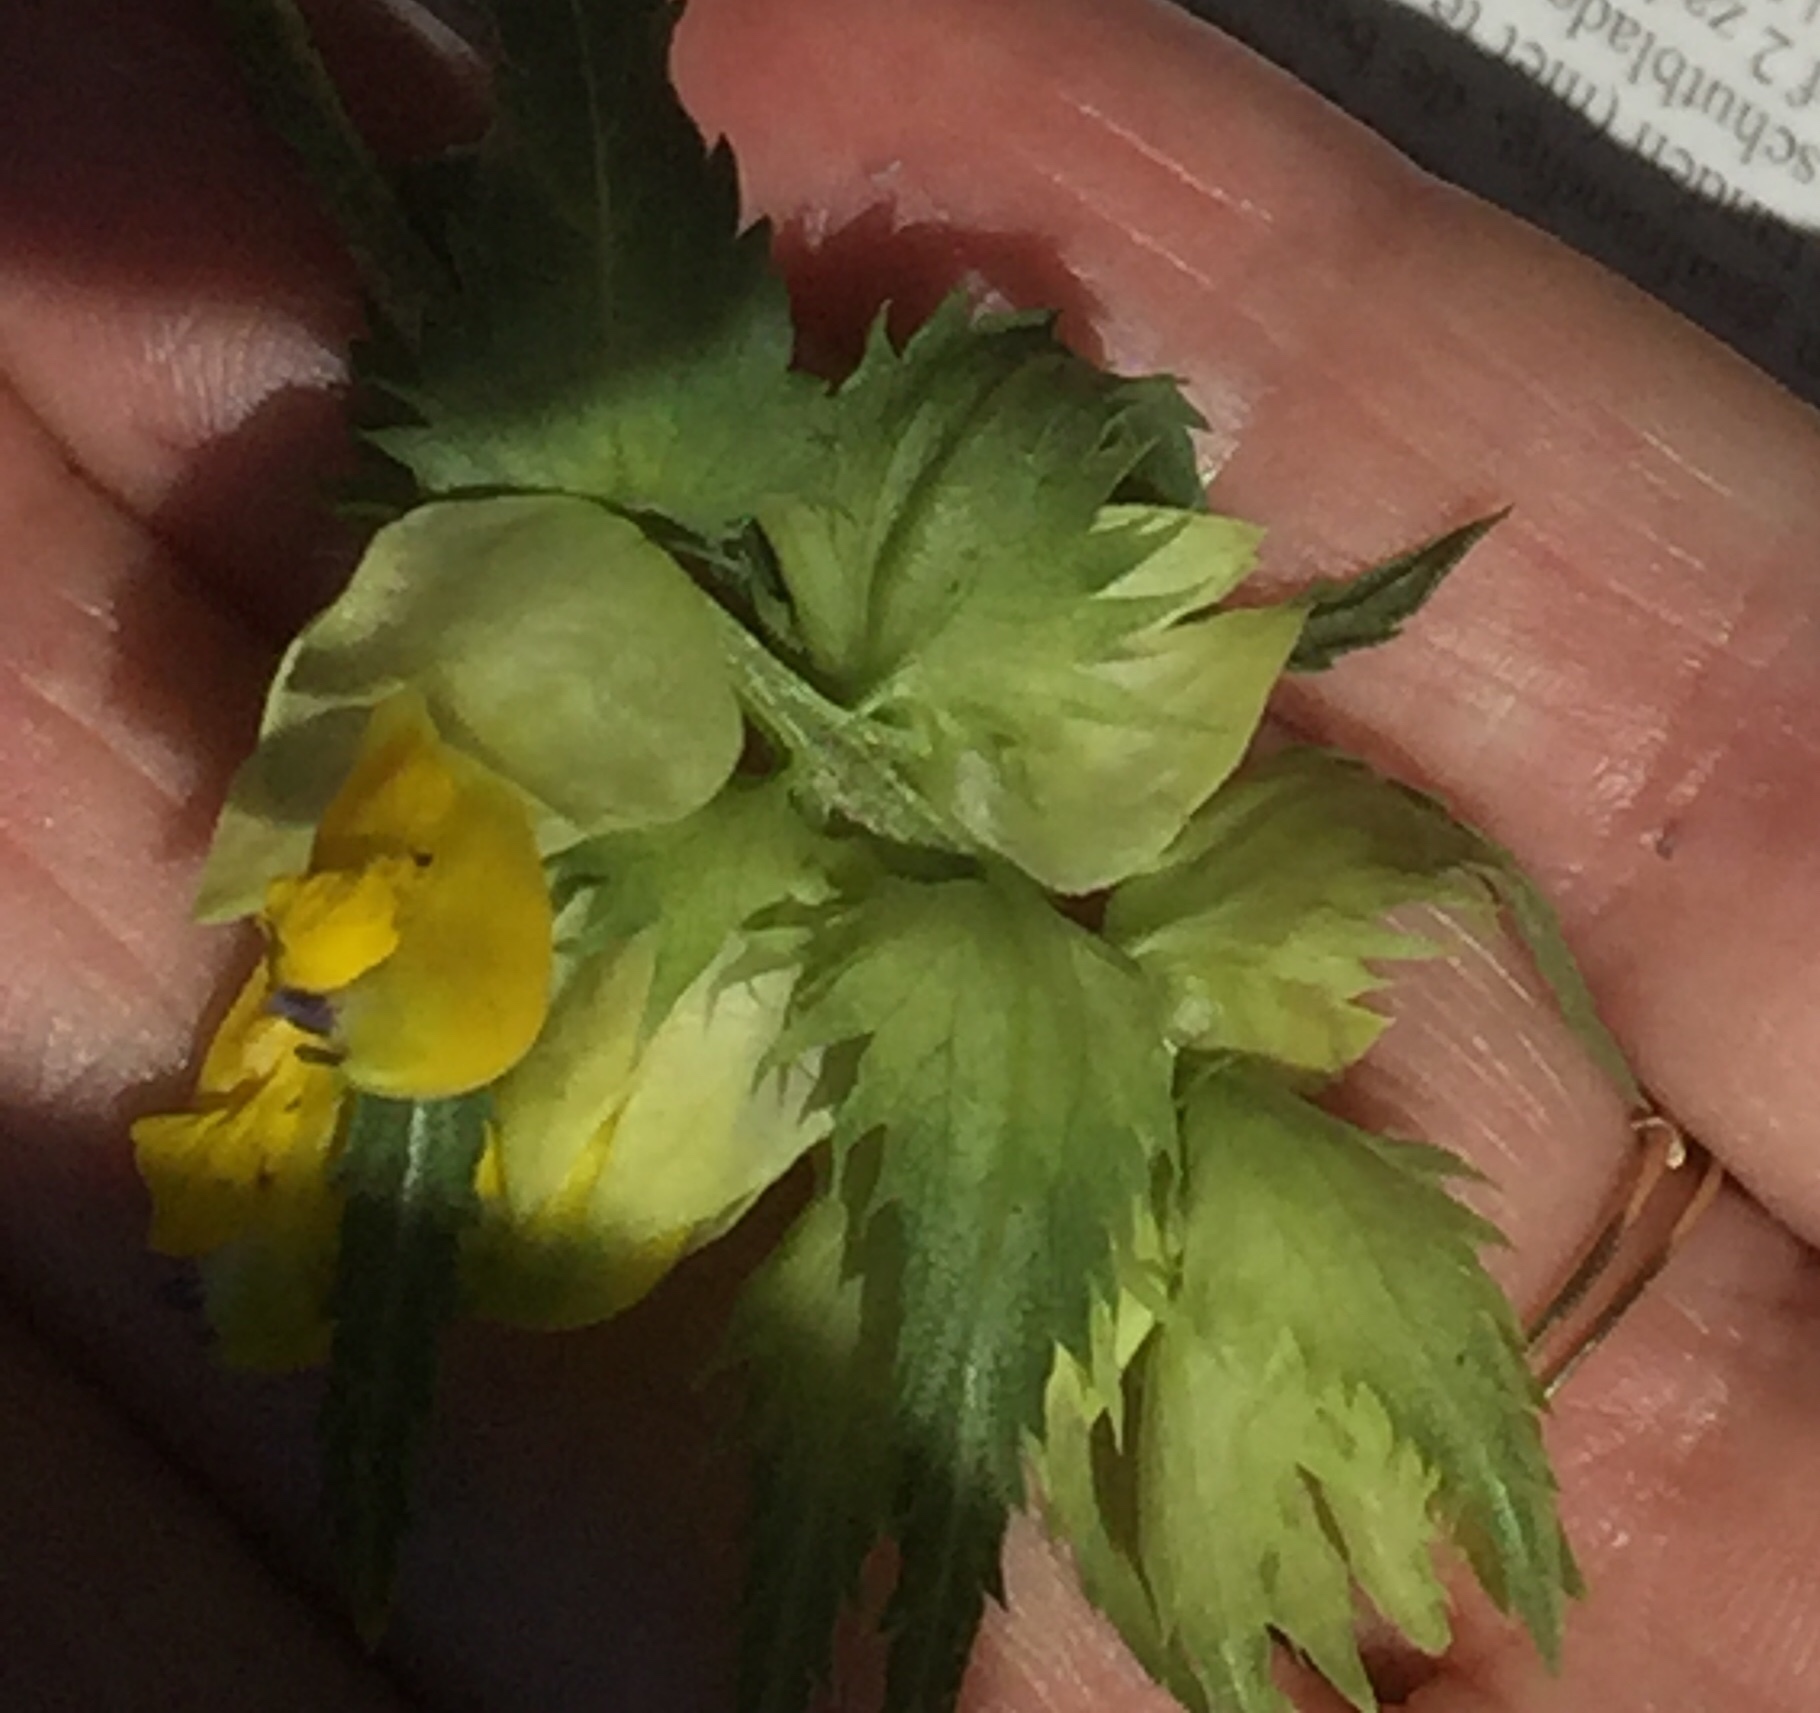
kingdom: Plantae
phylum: Tracheophyta
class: Magnoliopsida
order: Lamiales
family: Orobanchaceae
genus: Rhinanthus
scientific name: Rhinanthus serotinus
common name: Late-flowering yellow rattle
